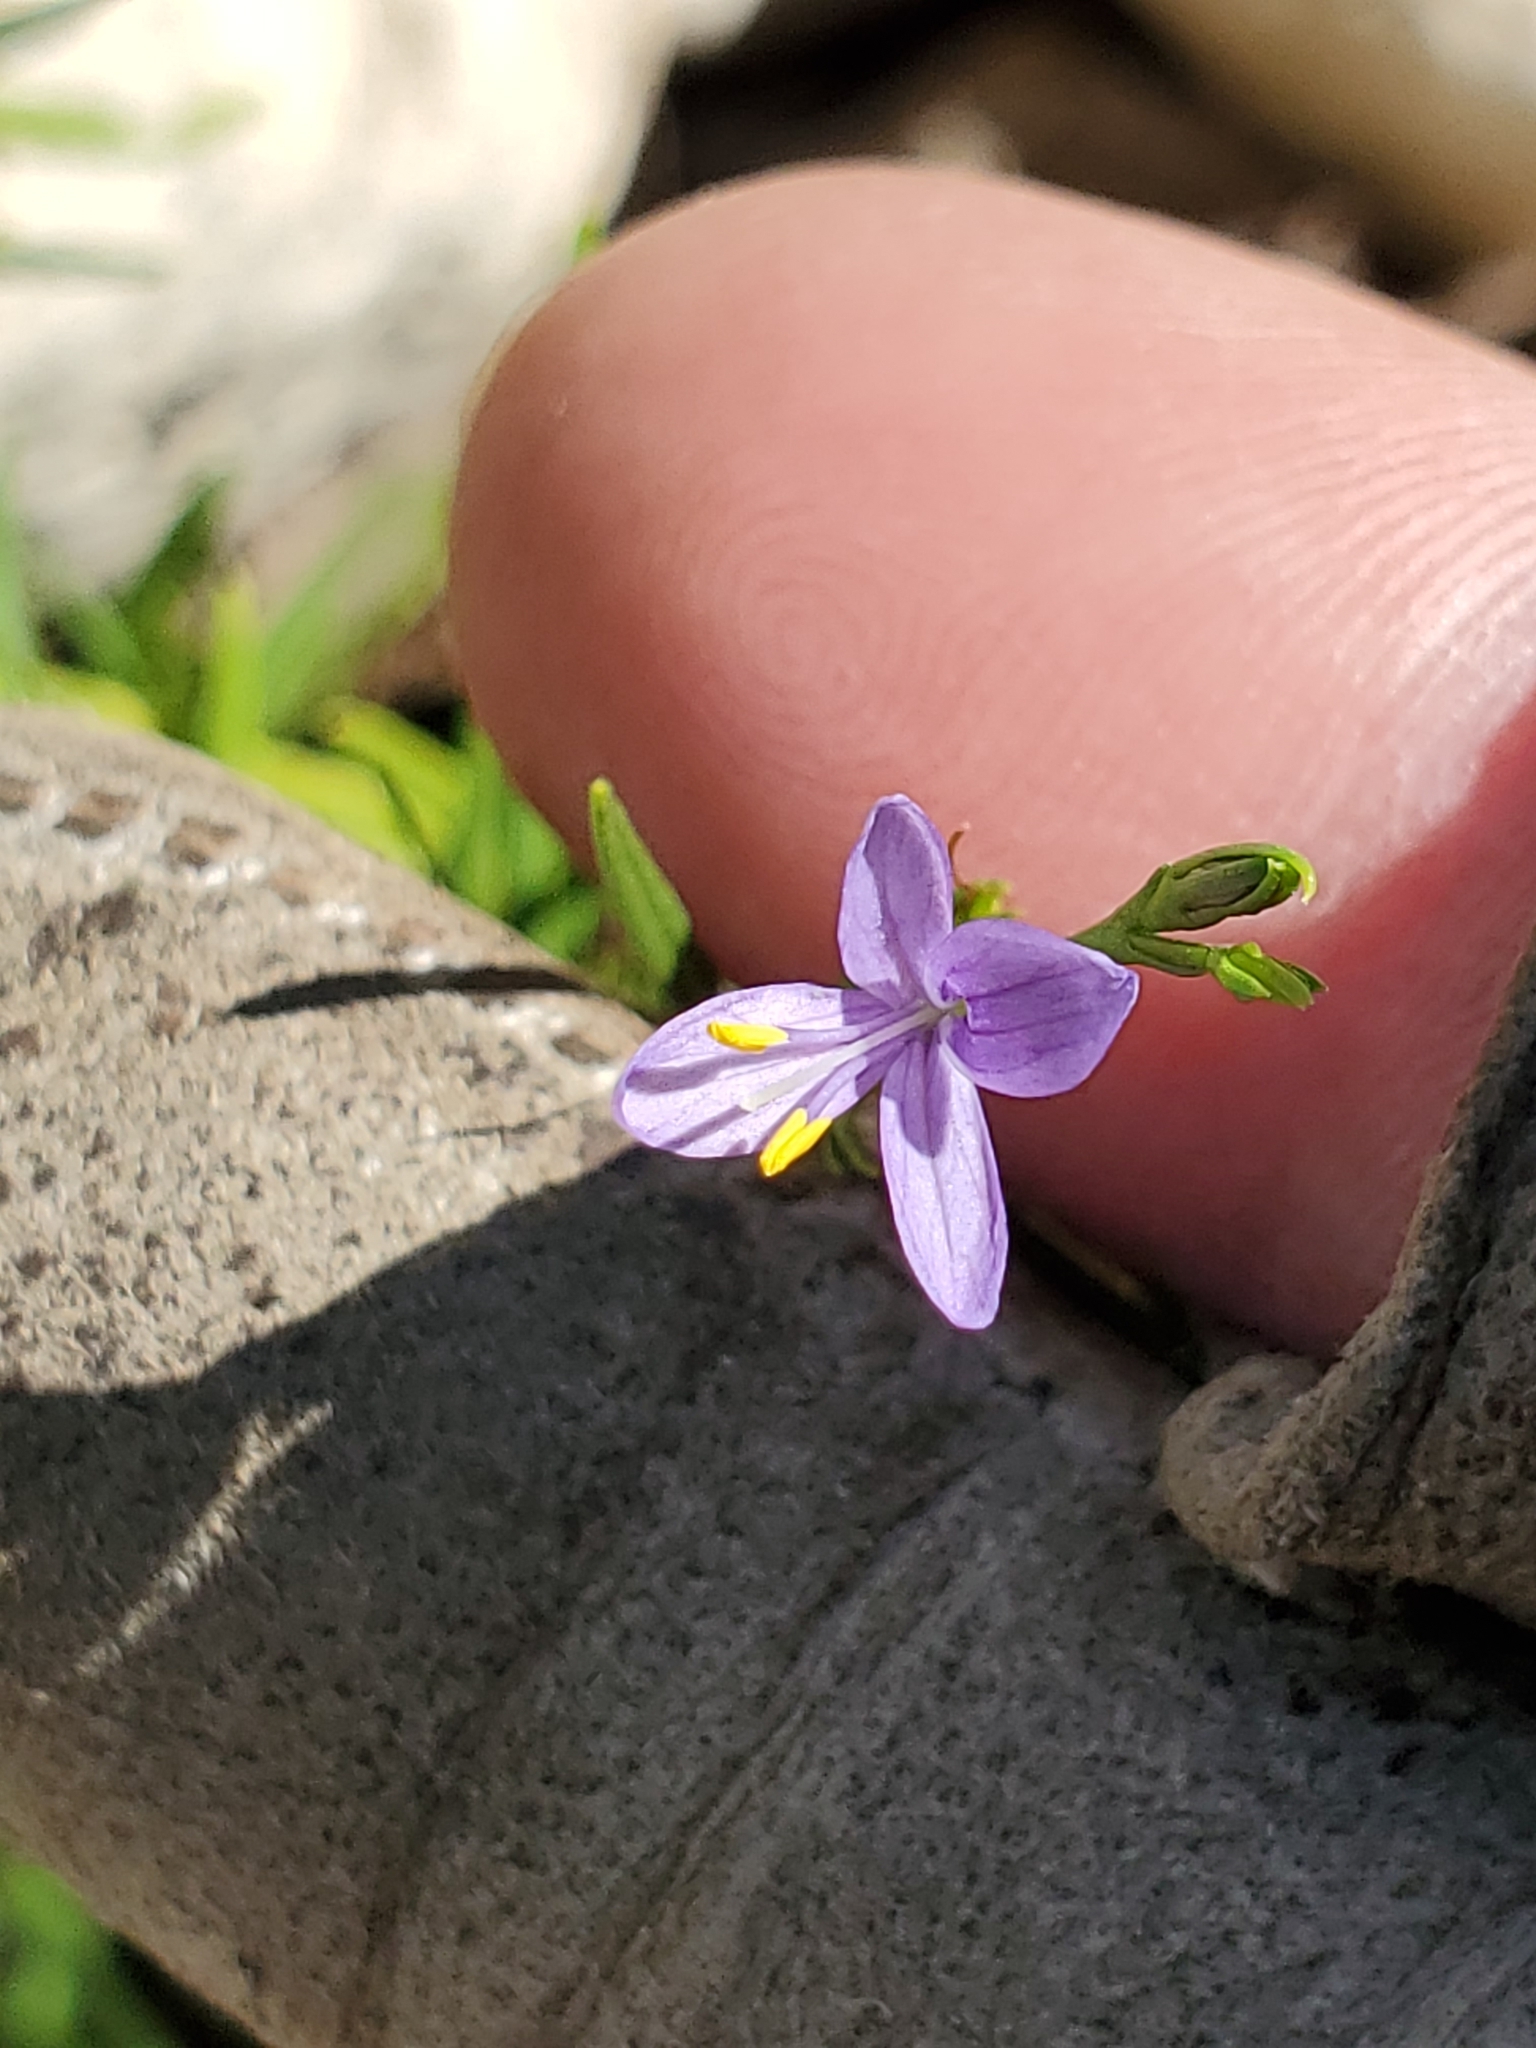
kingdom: Plantae
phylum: Tracheophyta
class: Magnoliopsida
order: Lamiales
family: Acanthaceae
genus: Carlowrightia
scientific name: Carlowrightia linearifolia
